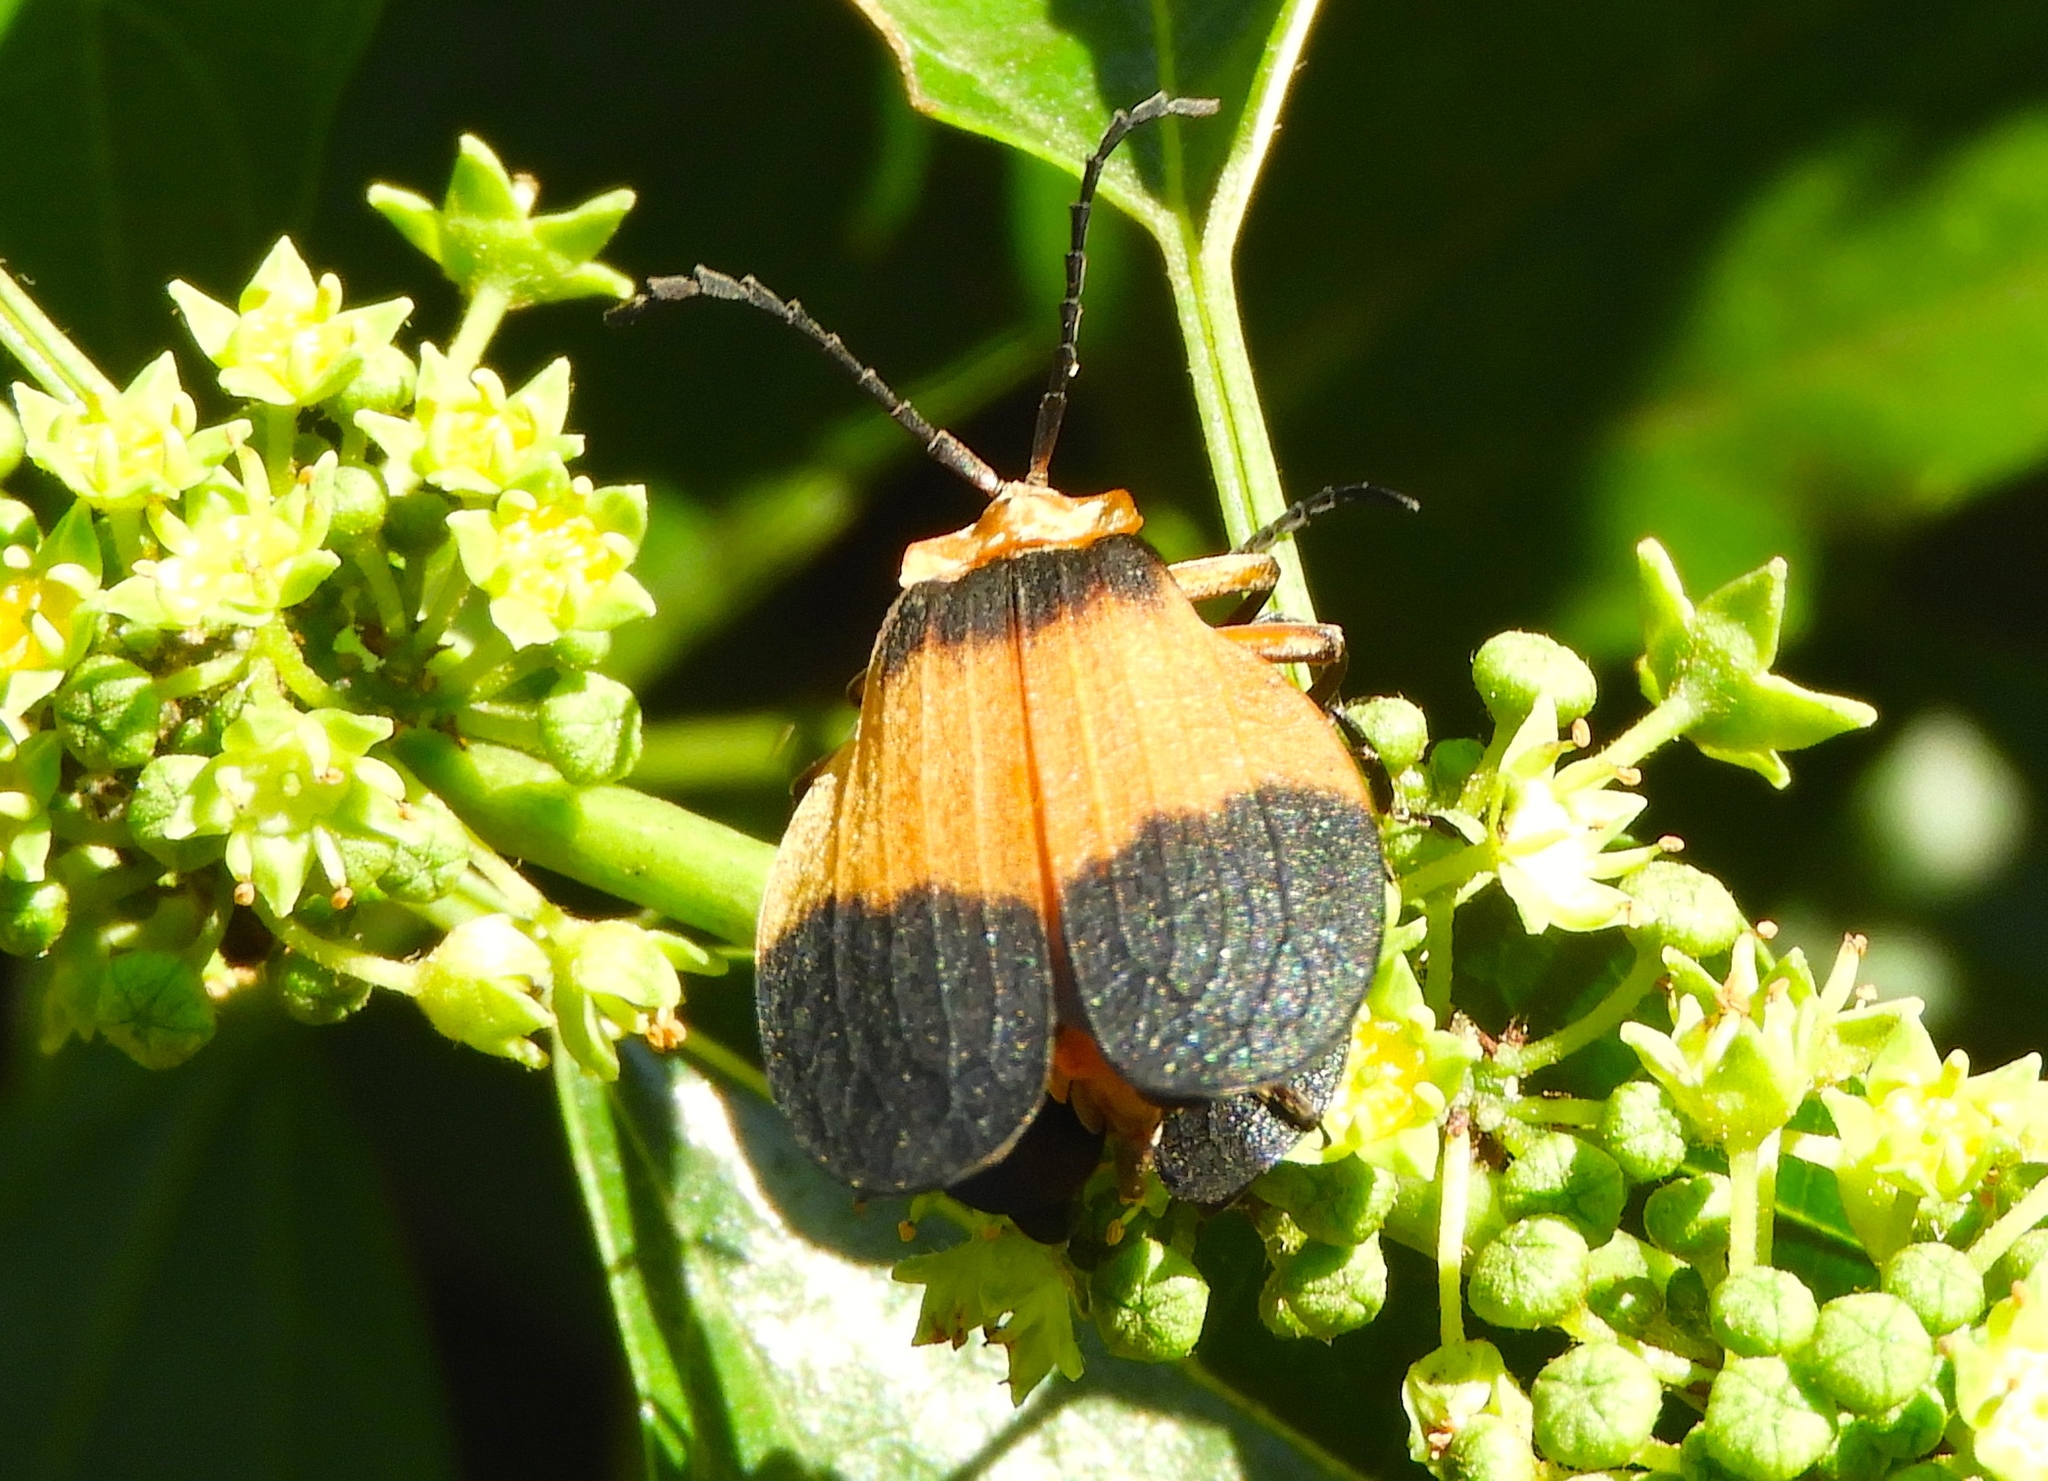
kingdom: Animalia
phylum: Arthropoda
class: Insecta
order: Coleoptera
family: Lycidae
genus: Lycus
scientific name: Lycus
